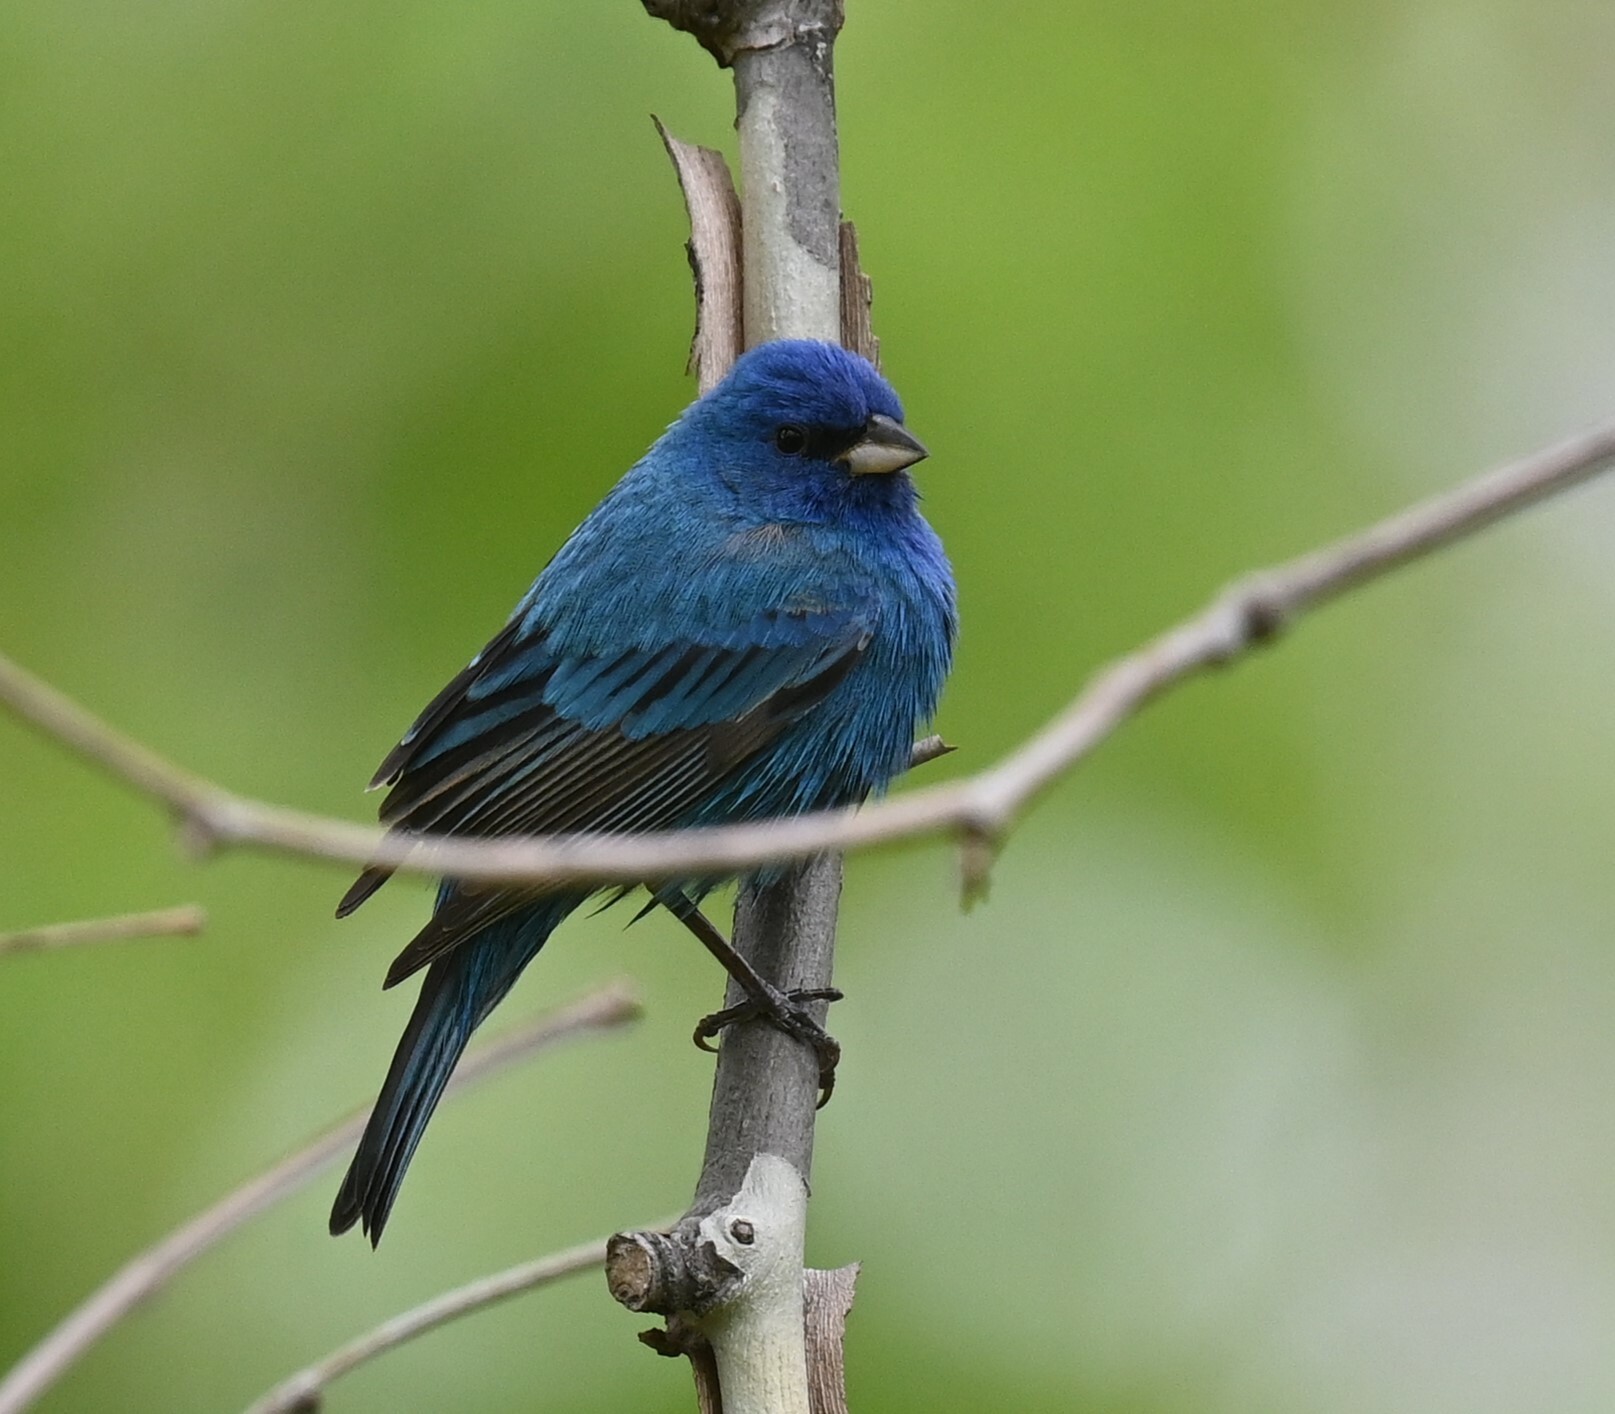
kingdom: Animalia
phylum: Chordata
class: Aves
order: Passeriformes
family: Cardinalidae
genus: Passerina
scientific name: Passerina cyanea
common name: Indigo bunting
